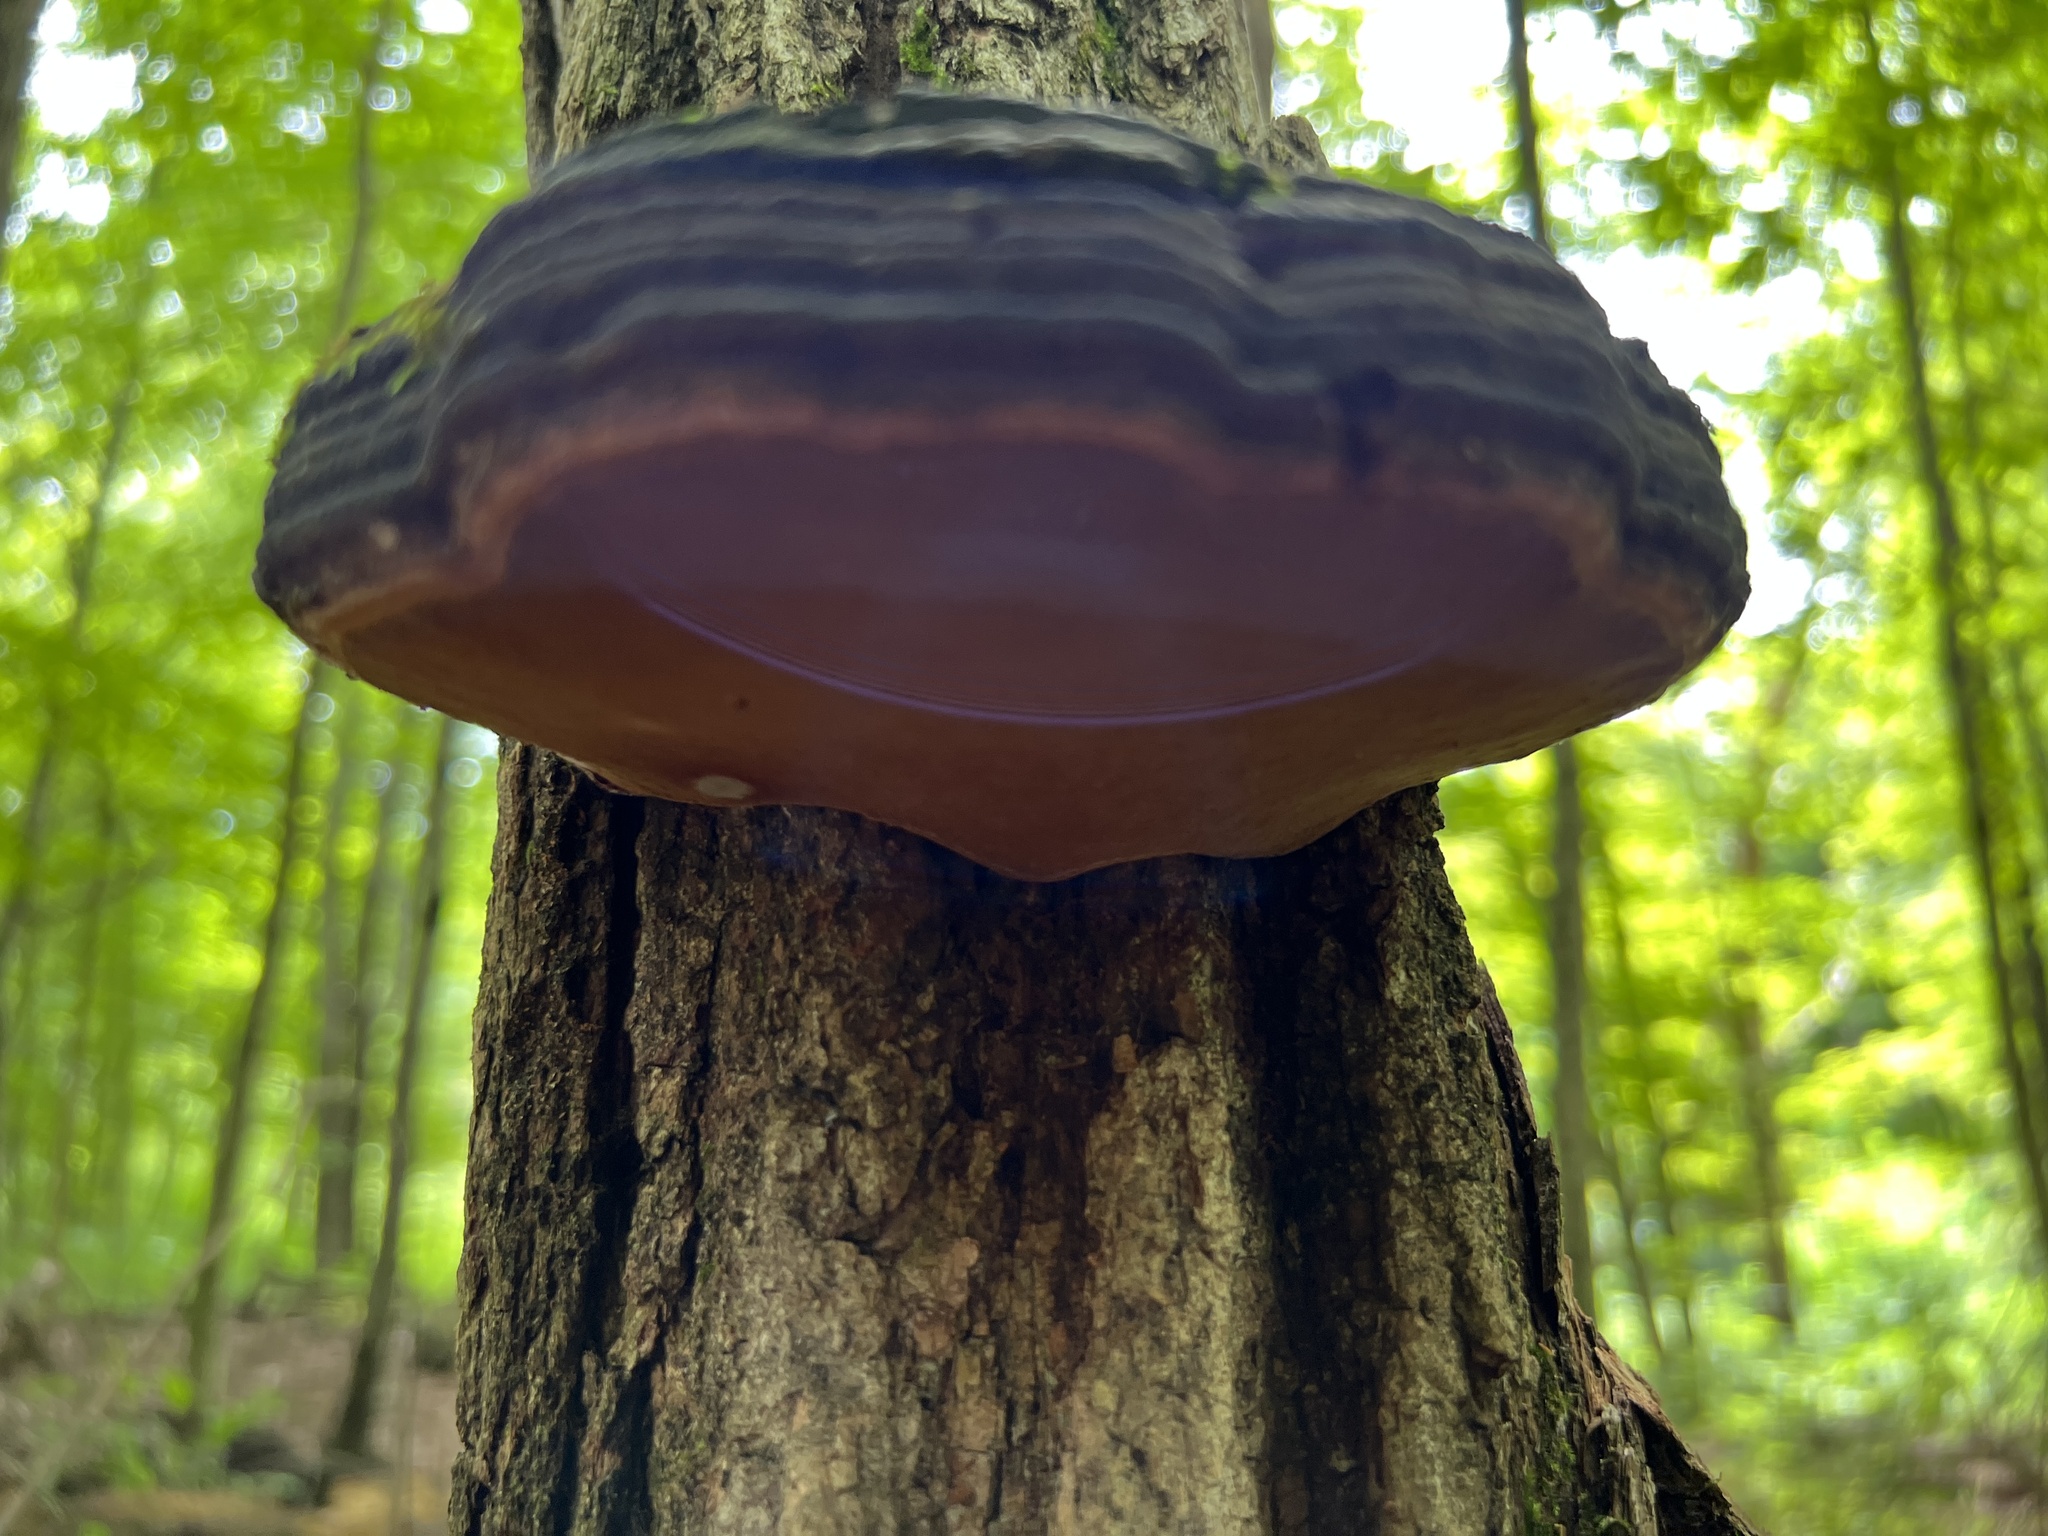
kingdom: Fungi
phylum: Basidiomycota
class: Agaricomycetes
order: Hymenochaetales
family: Hymenochaetaceae
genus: Phellinus
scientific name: Phellinus robiniae
